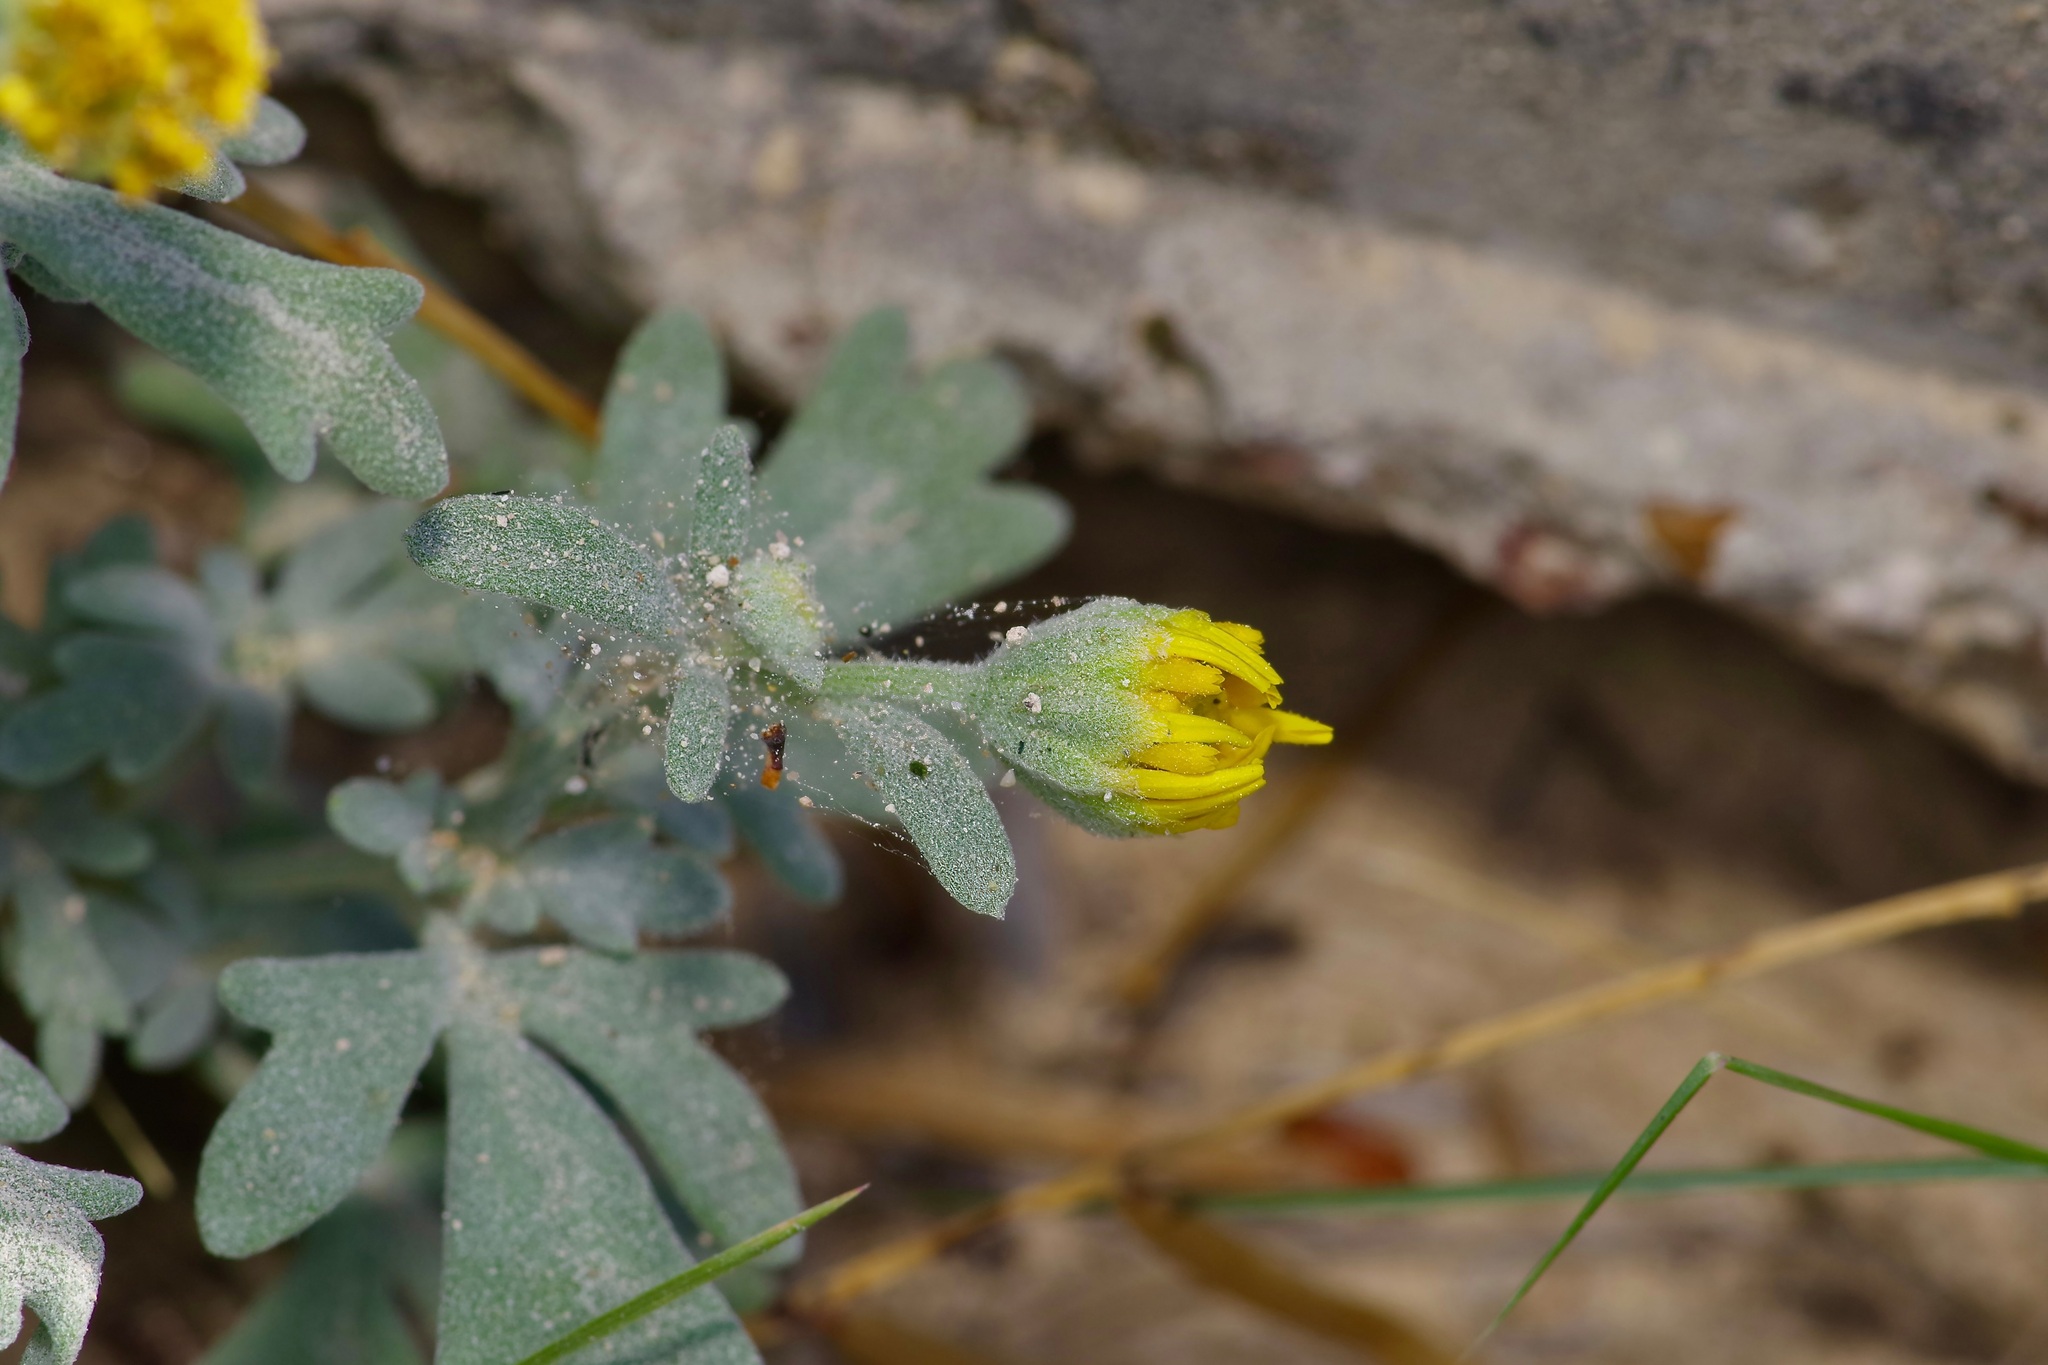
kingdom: Plantae
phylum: Tracheophyta
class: Magnoliopsida
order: Asterales
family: Asteraceae
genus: Picradeniopsis
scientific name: Picradeniopsis absinthifolia
